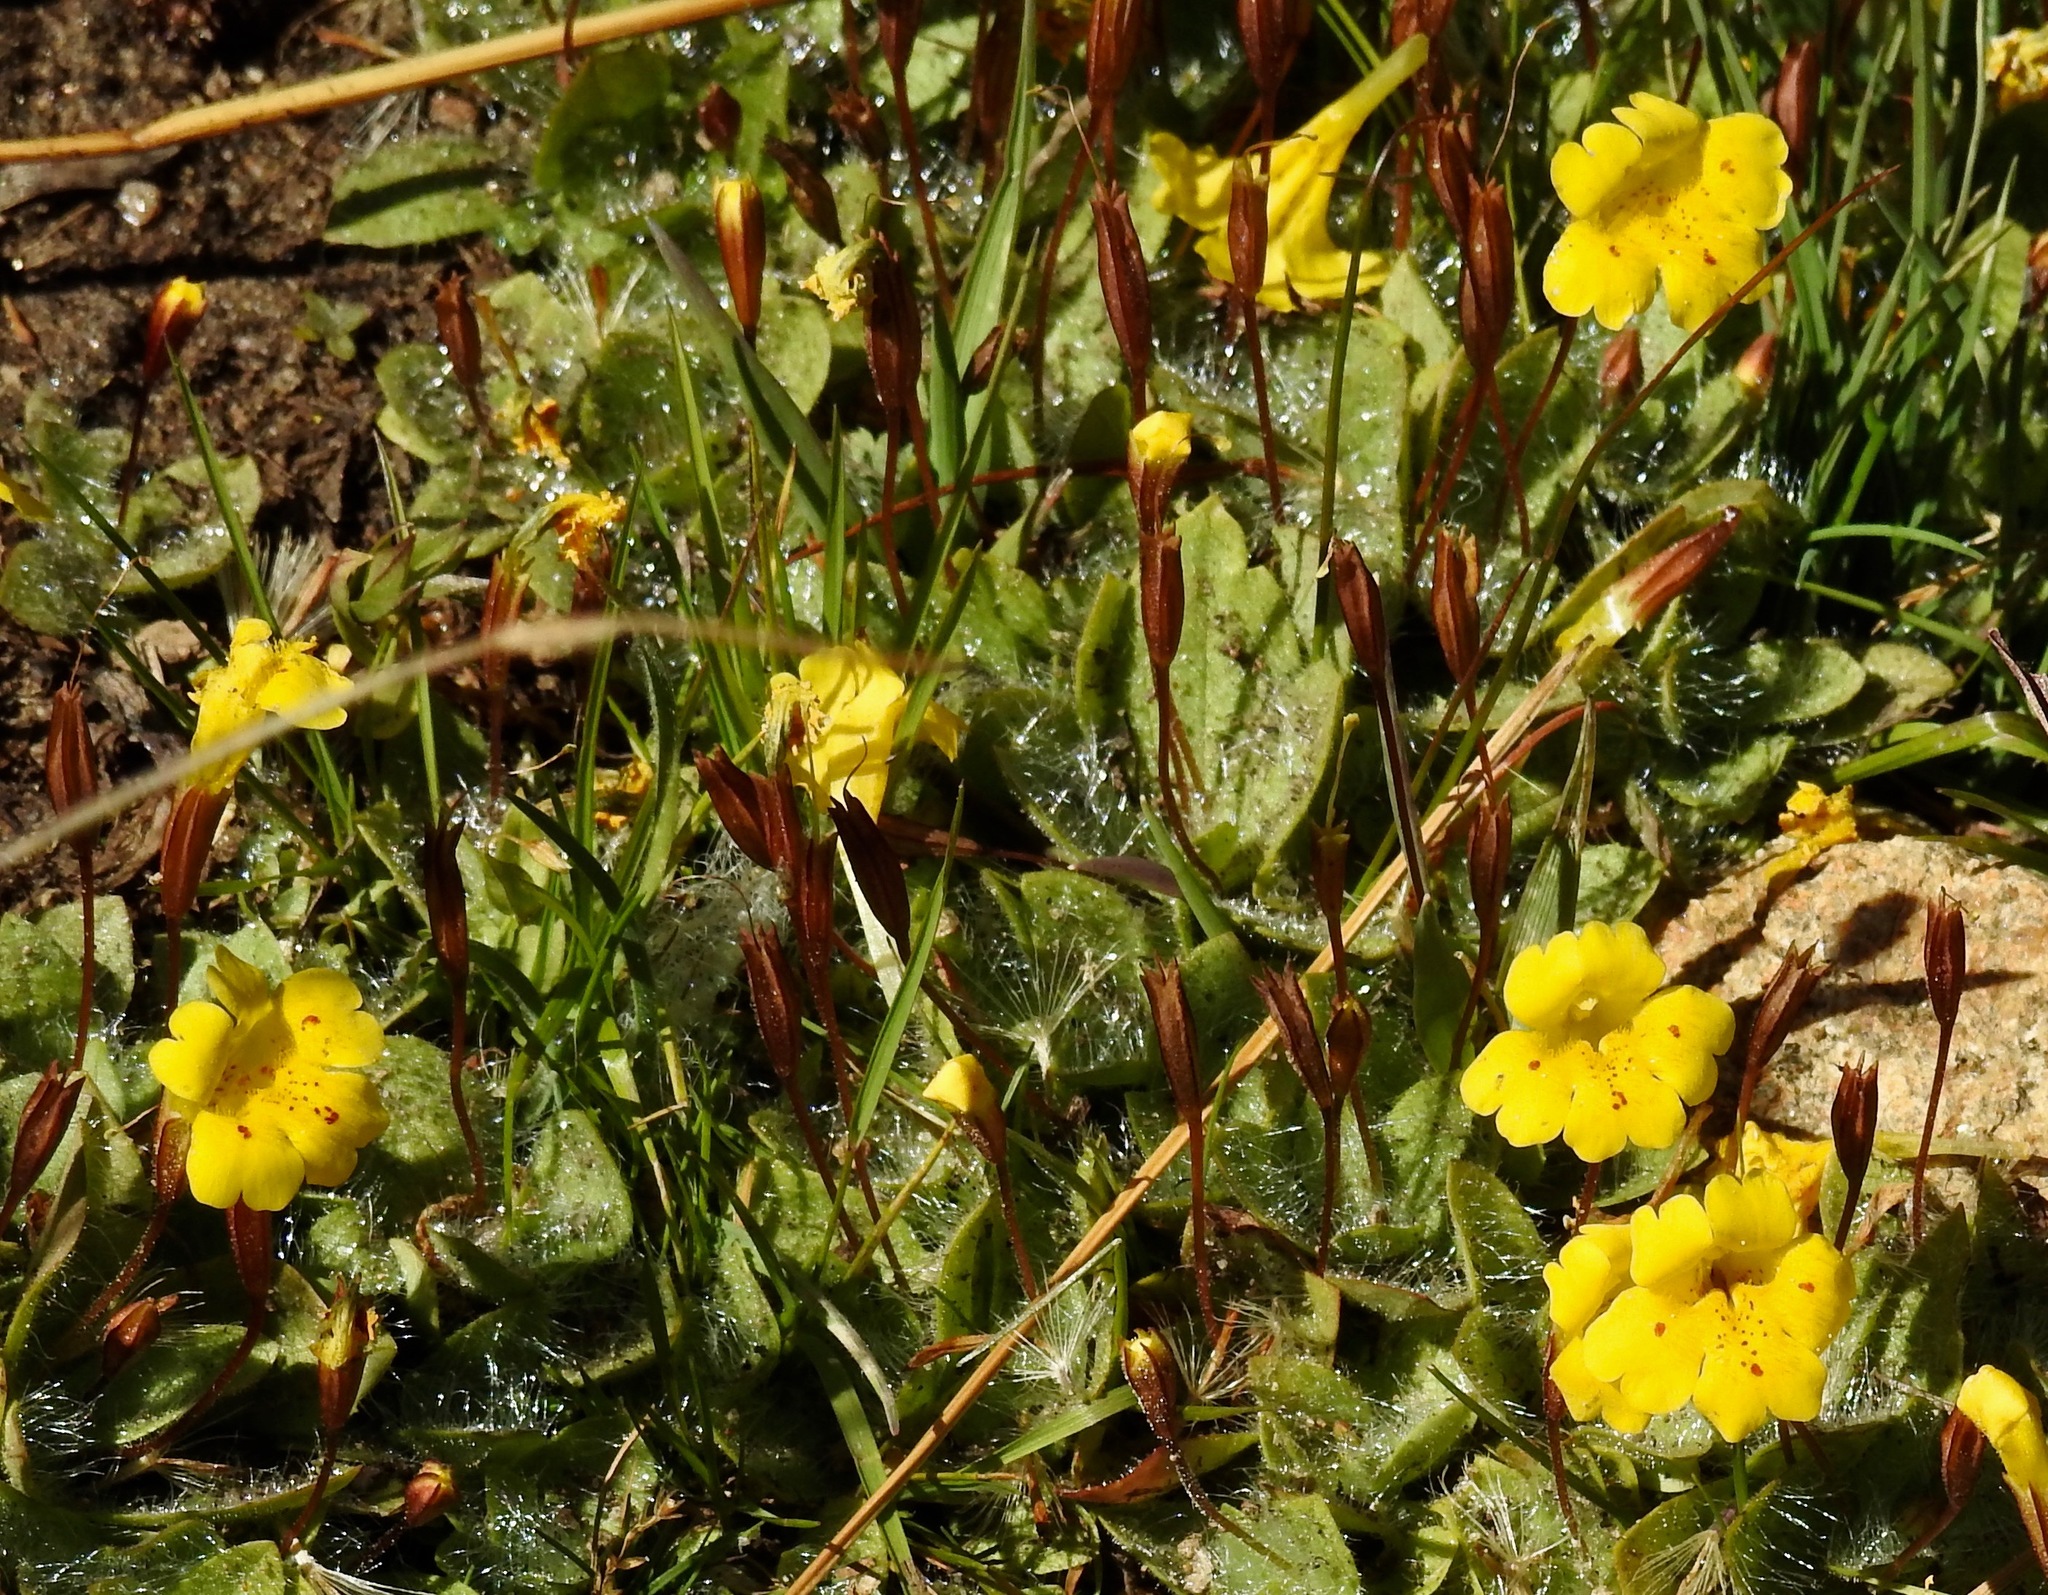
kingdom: Plantae
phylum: Tracheophyta
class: Magnoliopsida
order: Lamiales
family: Phrymaceae
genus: Erythranthe
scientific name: Erythranthe primuloides
